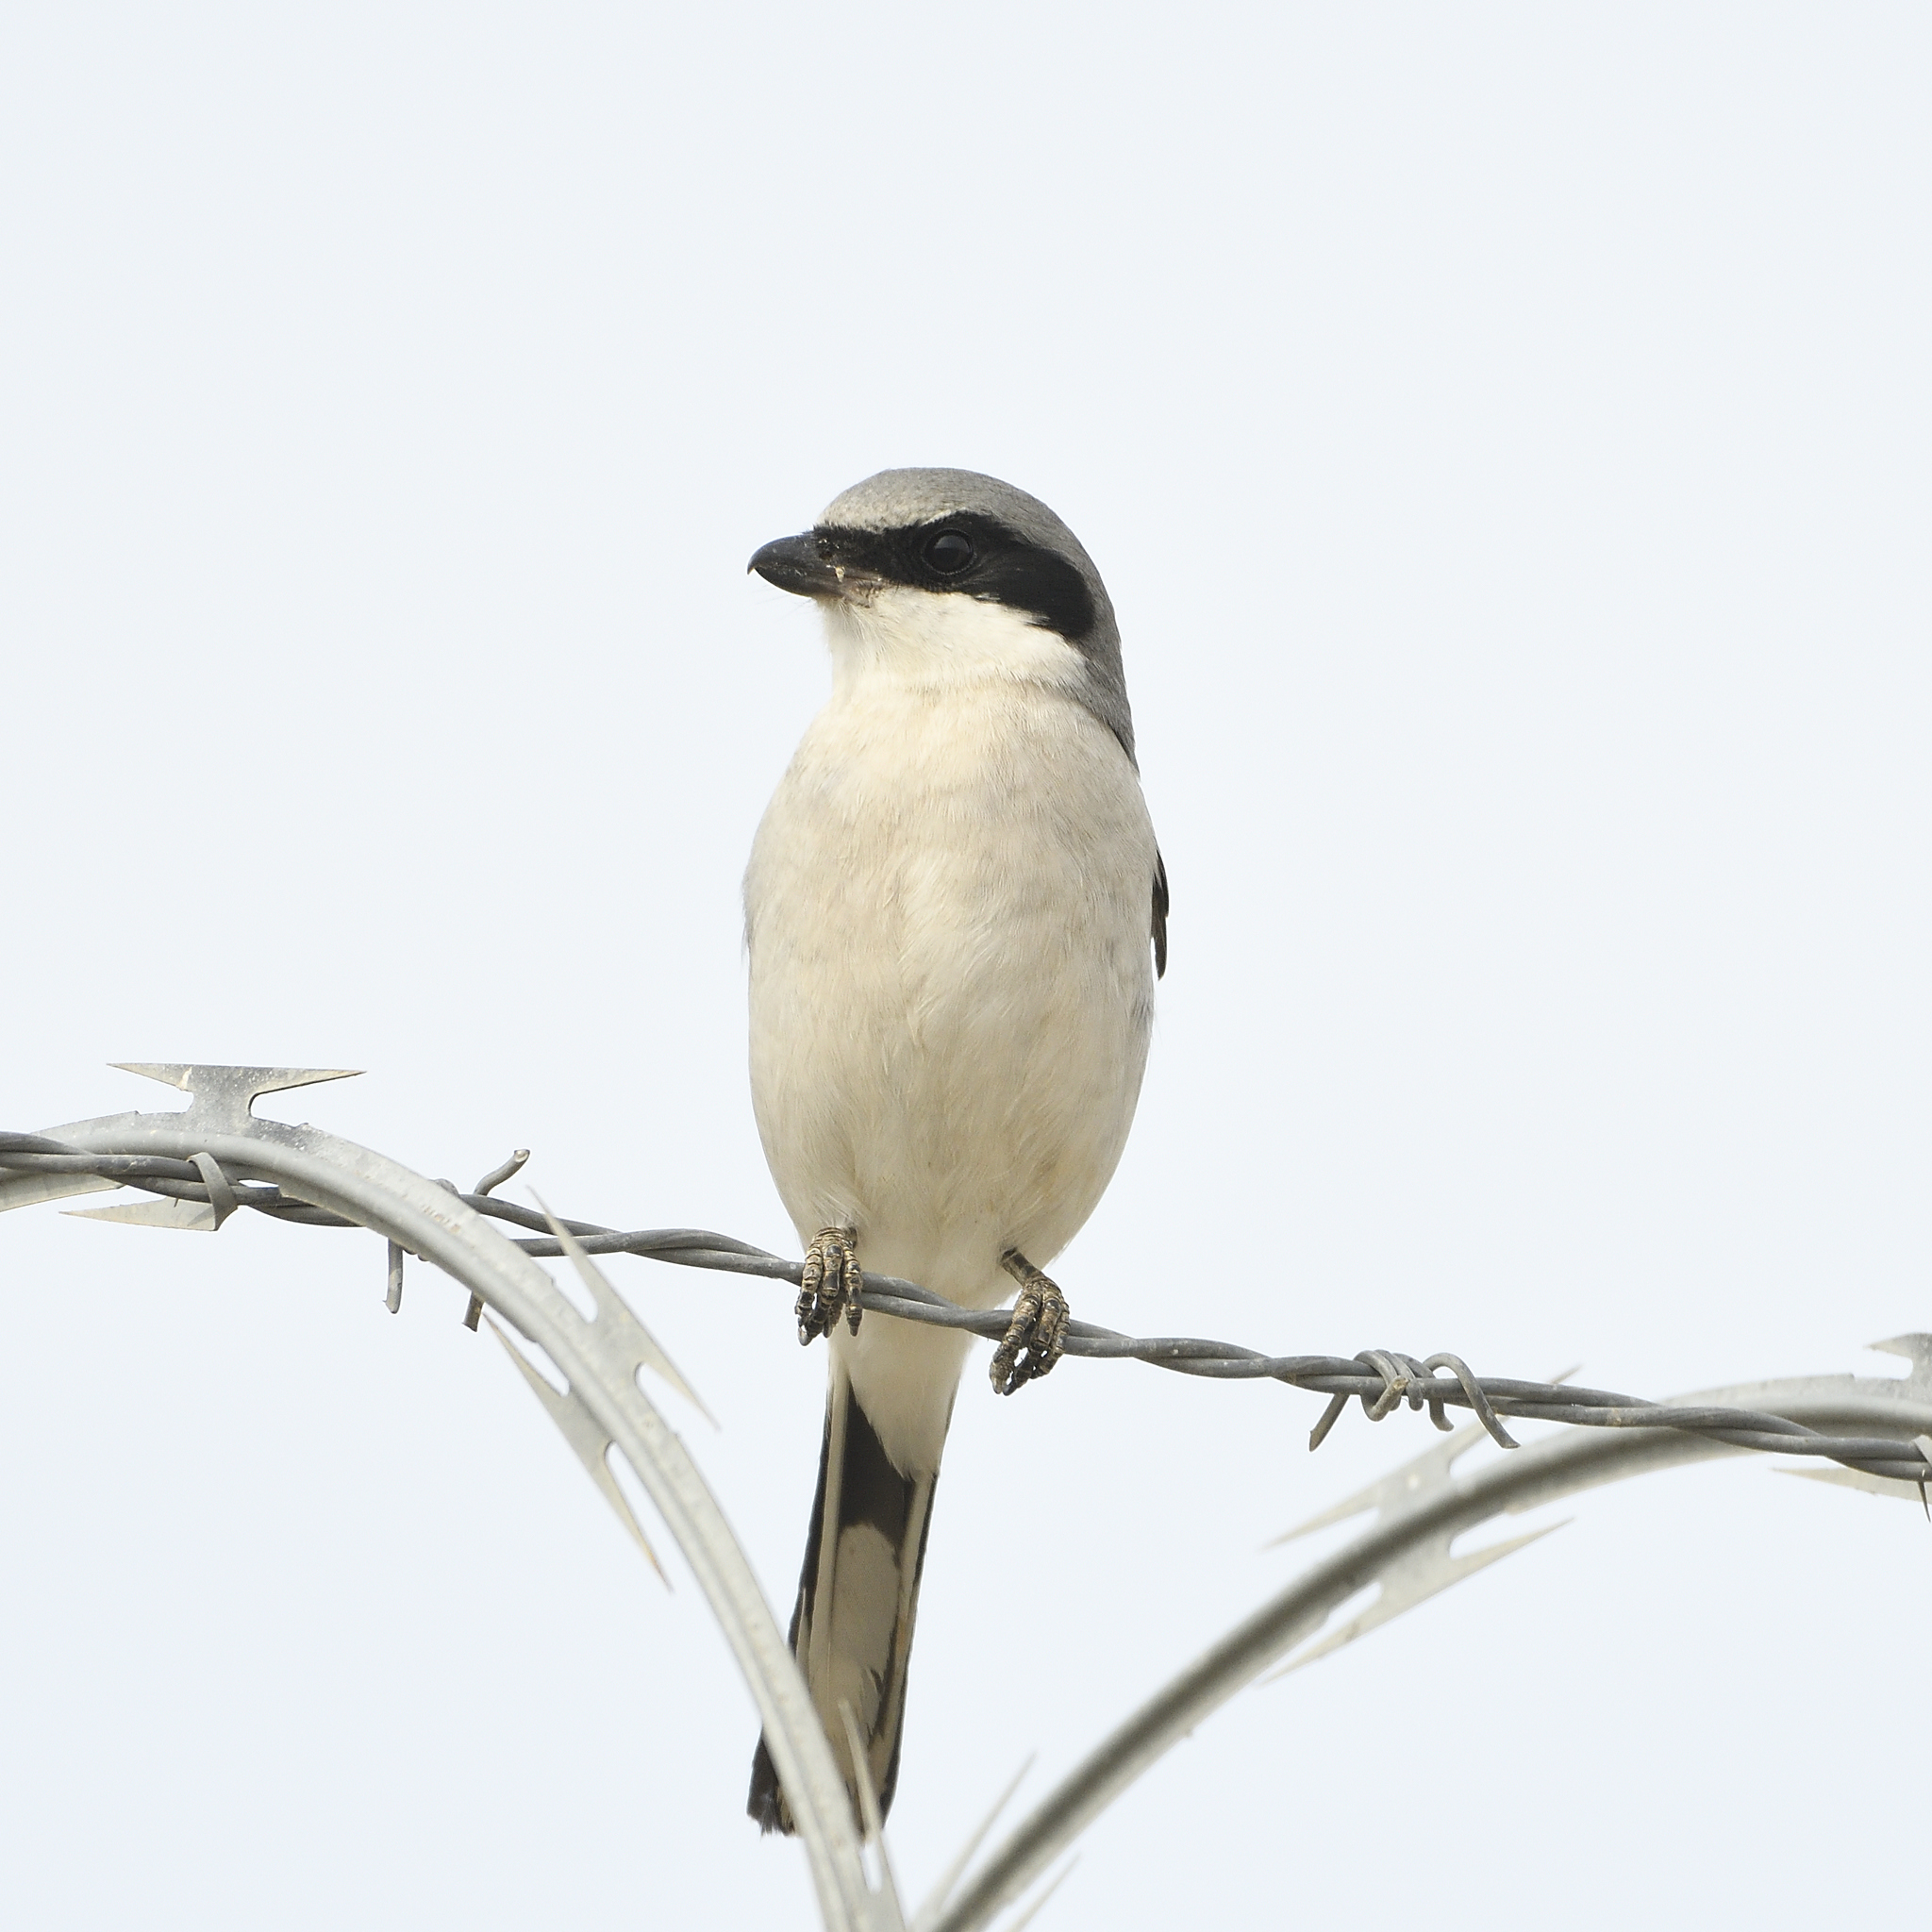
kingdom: Animalia
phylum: Chordata
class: Aves
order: Passeriformes
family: Laniidae
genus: Lanius
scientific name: Lanius ludovicianus
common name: Loggerhead shrike
